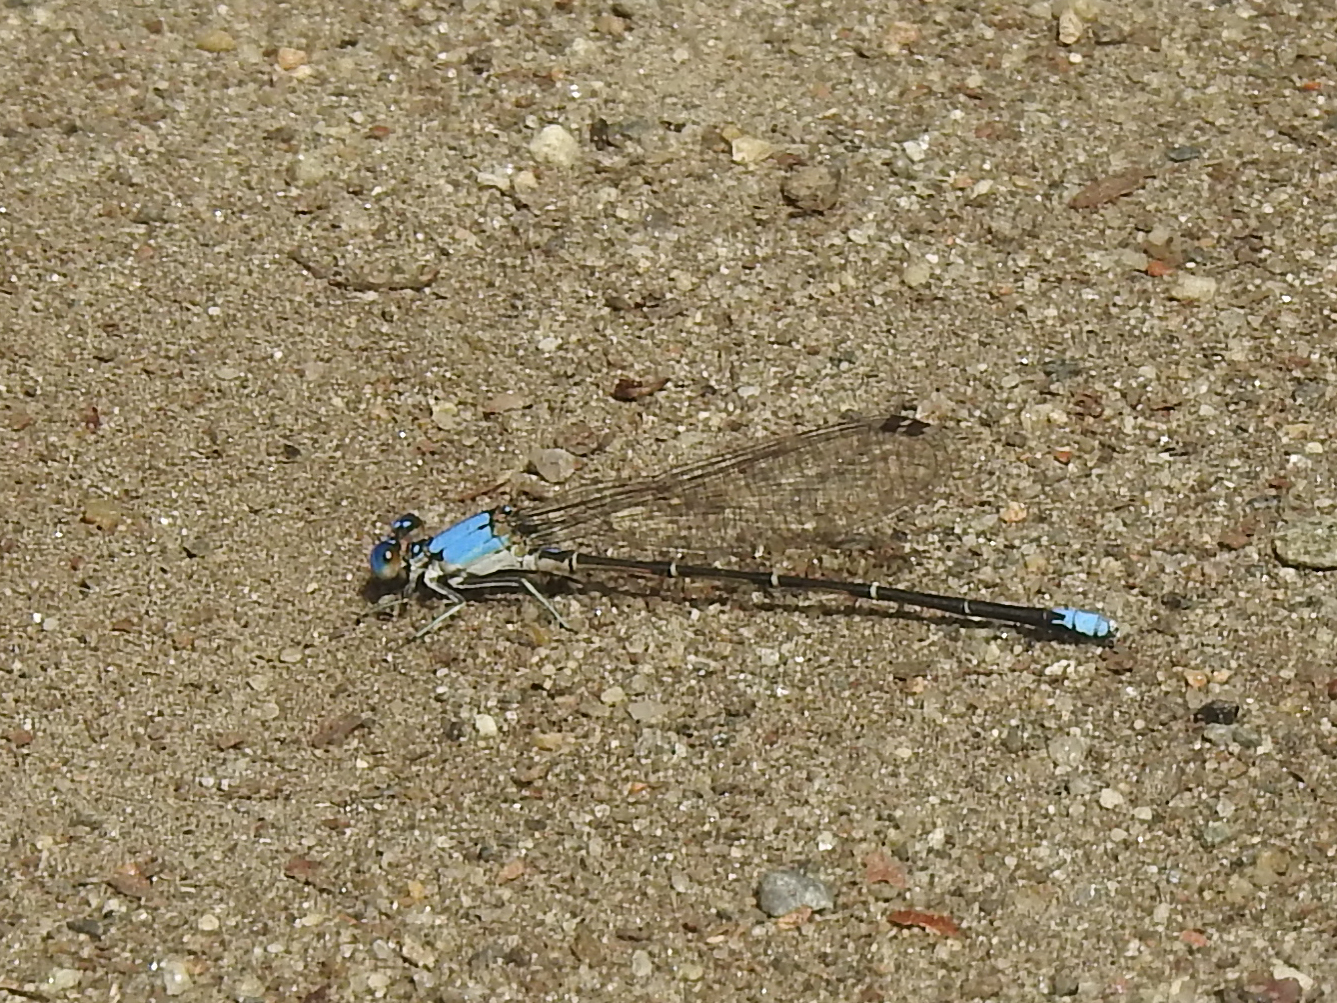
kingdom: Animalia
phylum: Arthropoda
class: Insecta
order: Odonata
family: Coenagrionidae
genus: Argia
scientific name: Argia apicalis
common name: Blue-fronted dancer
